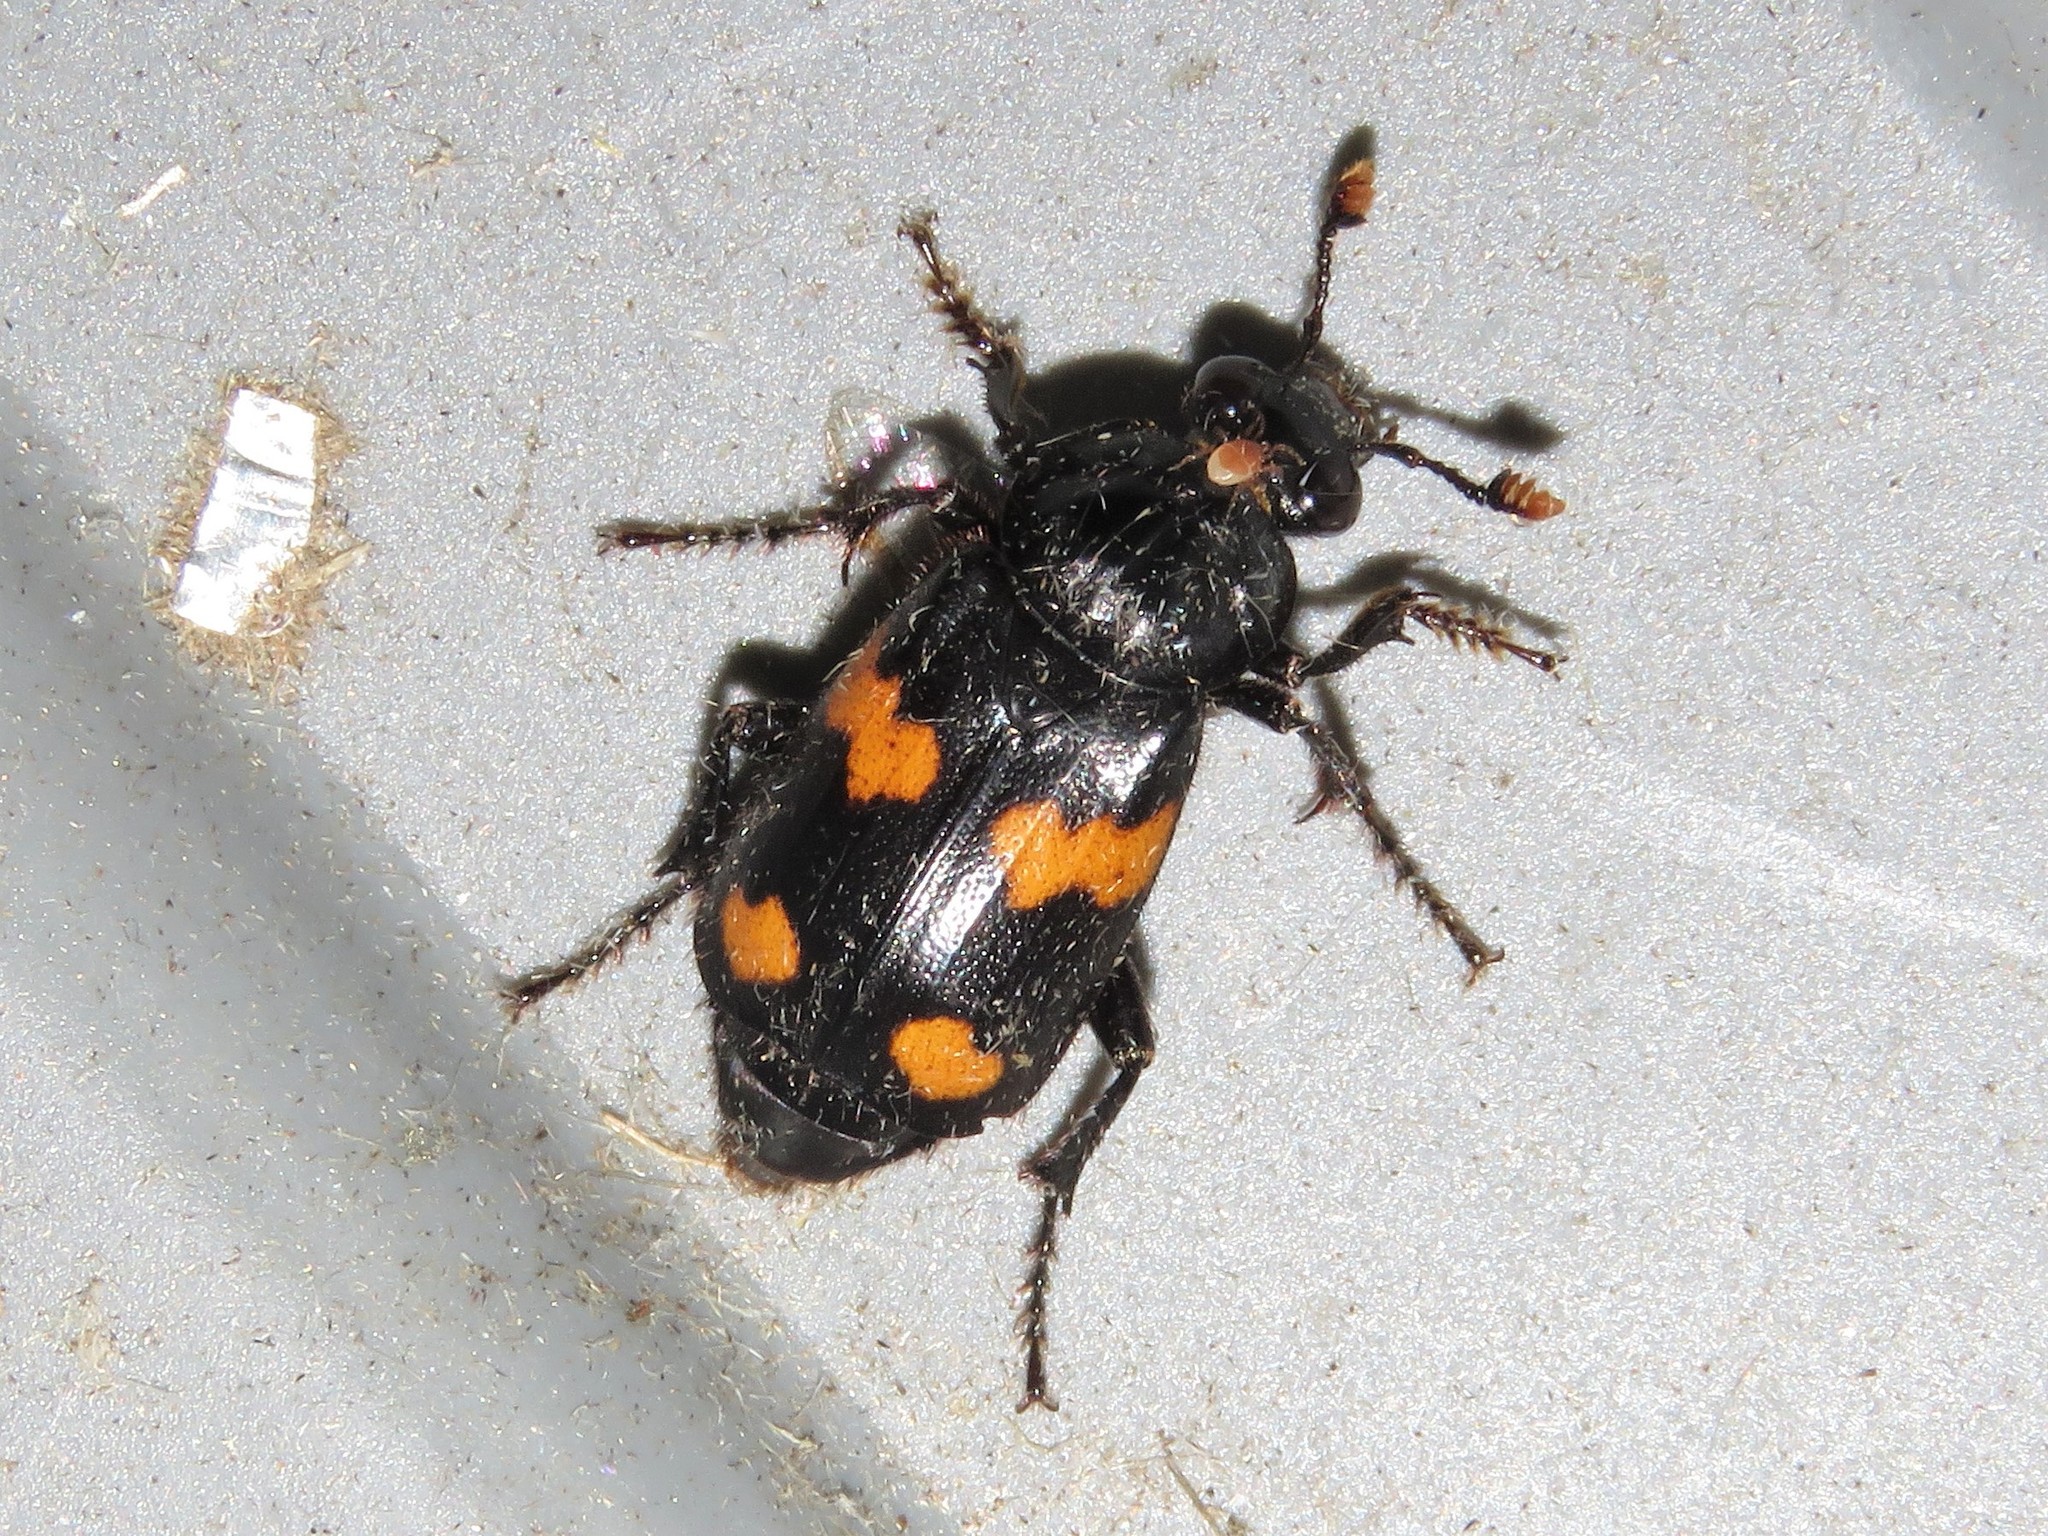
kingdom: Animalia
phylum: Arthropoda
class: Insecta
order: Coleoptera
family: Staphylinidae
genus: Nicrophorus
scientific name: Nicrophorus orbicollis
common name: Roundneck sexton beetle
